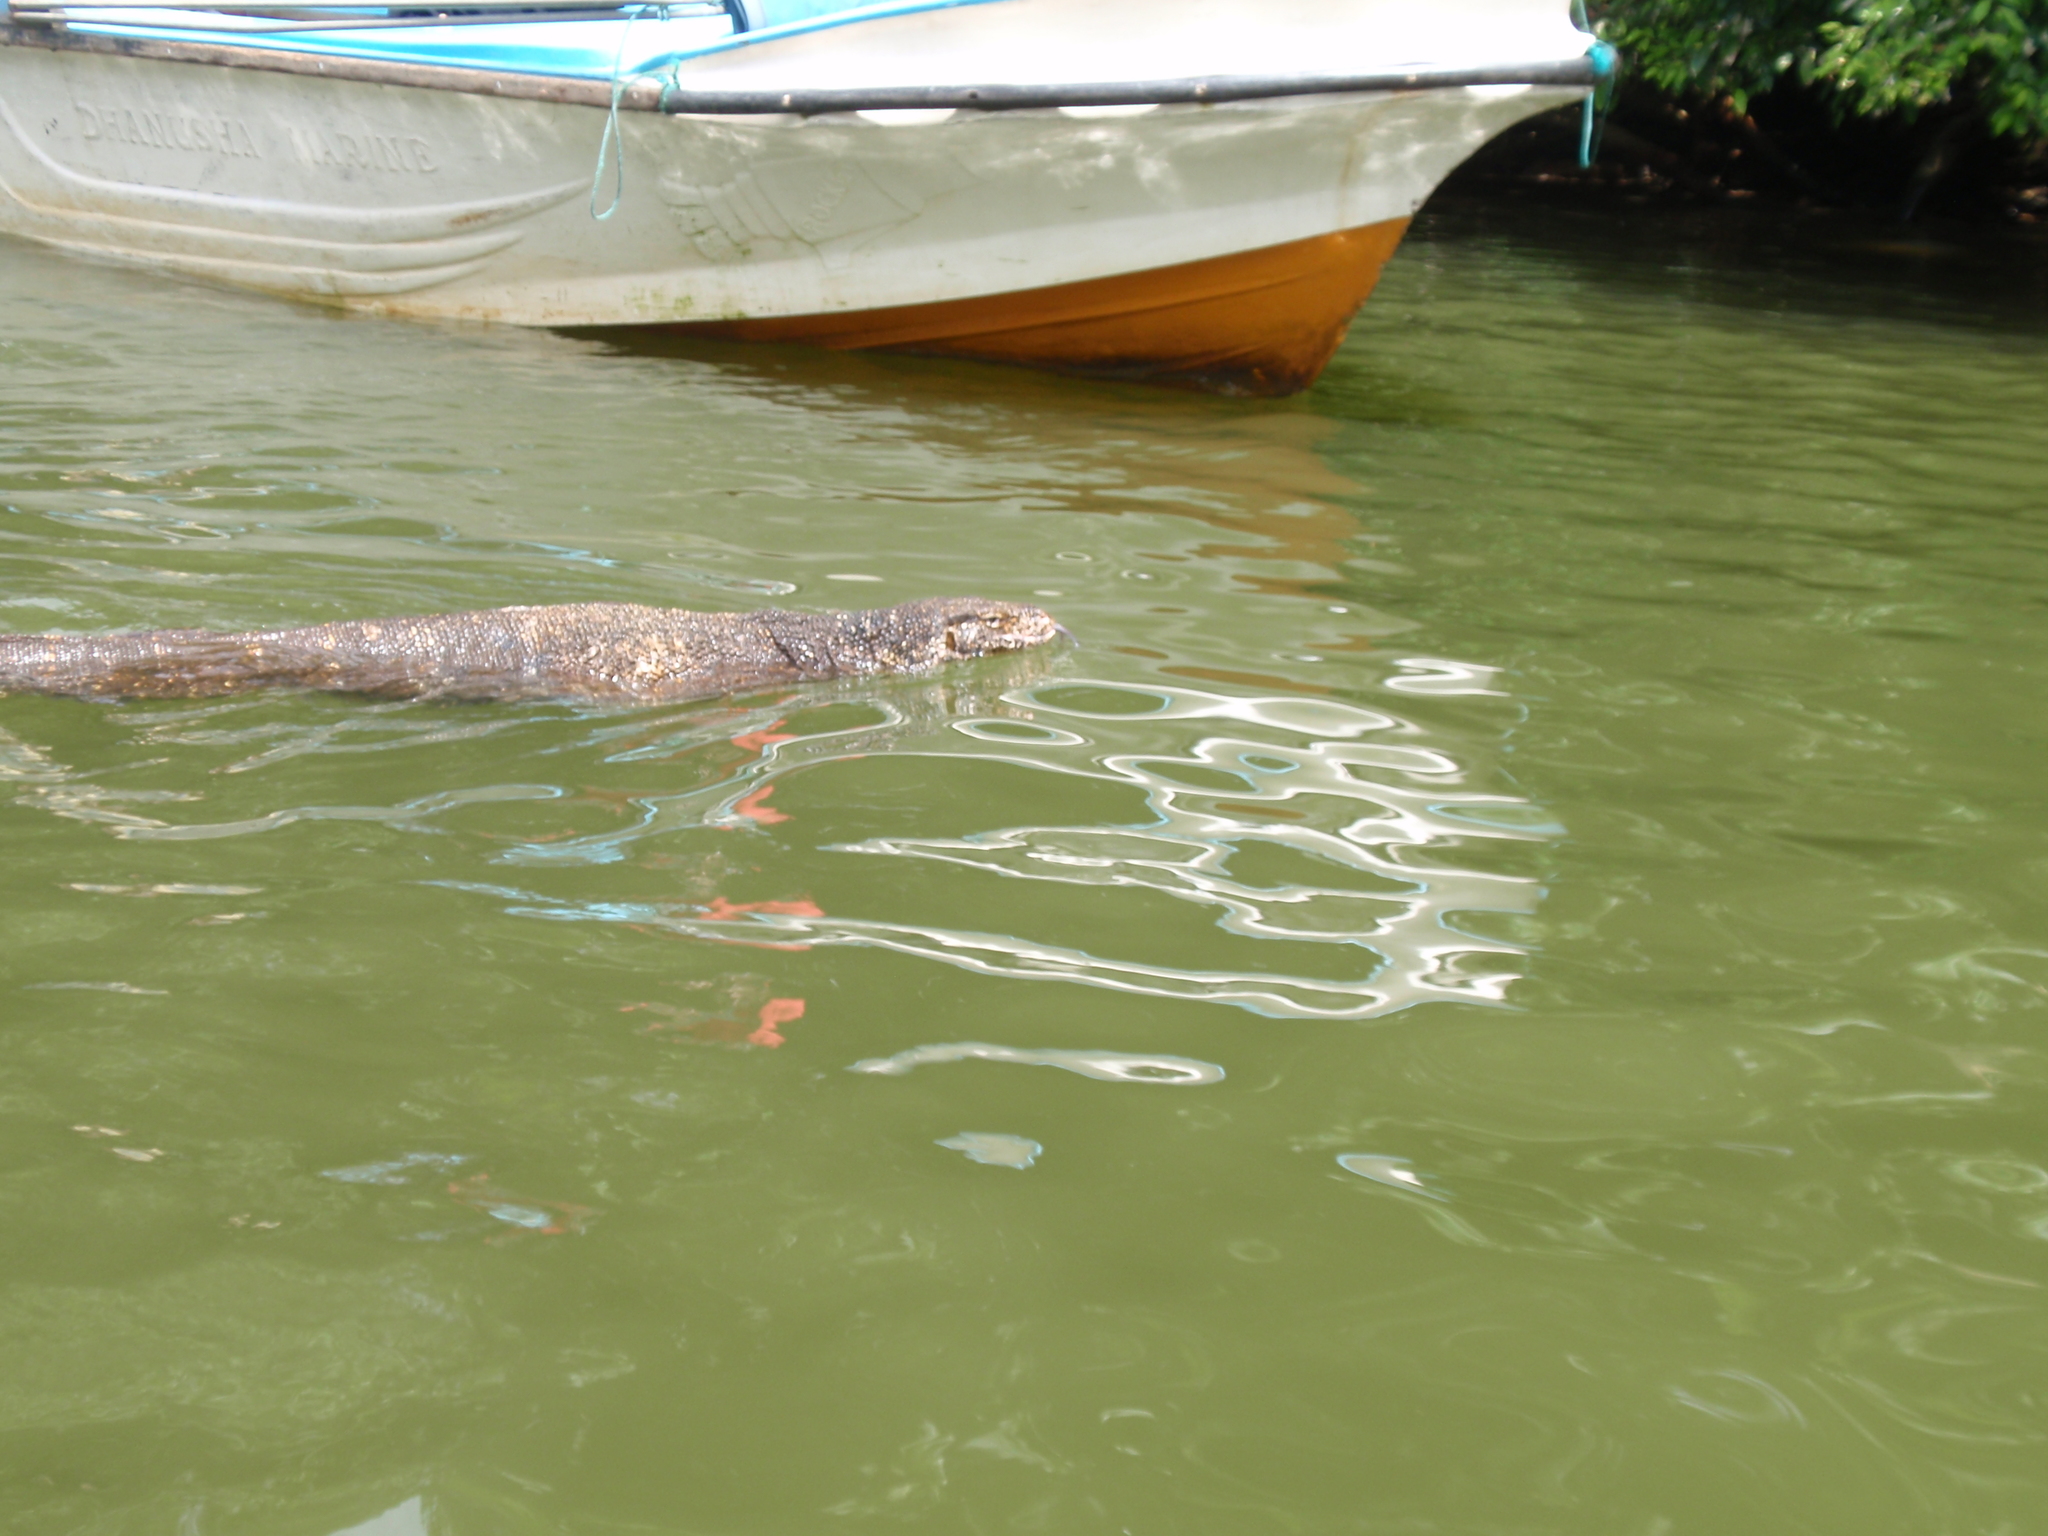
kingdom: Animalia
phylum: Chordata
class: Squamata
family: Varanidae
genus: Varanus
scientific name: Varanus salvator
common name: Common water monitor
